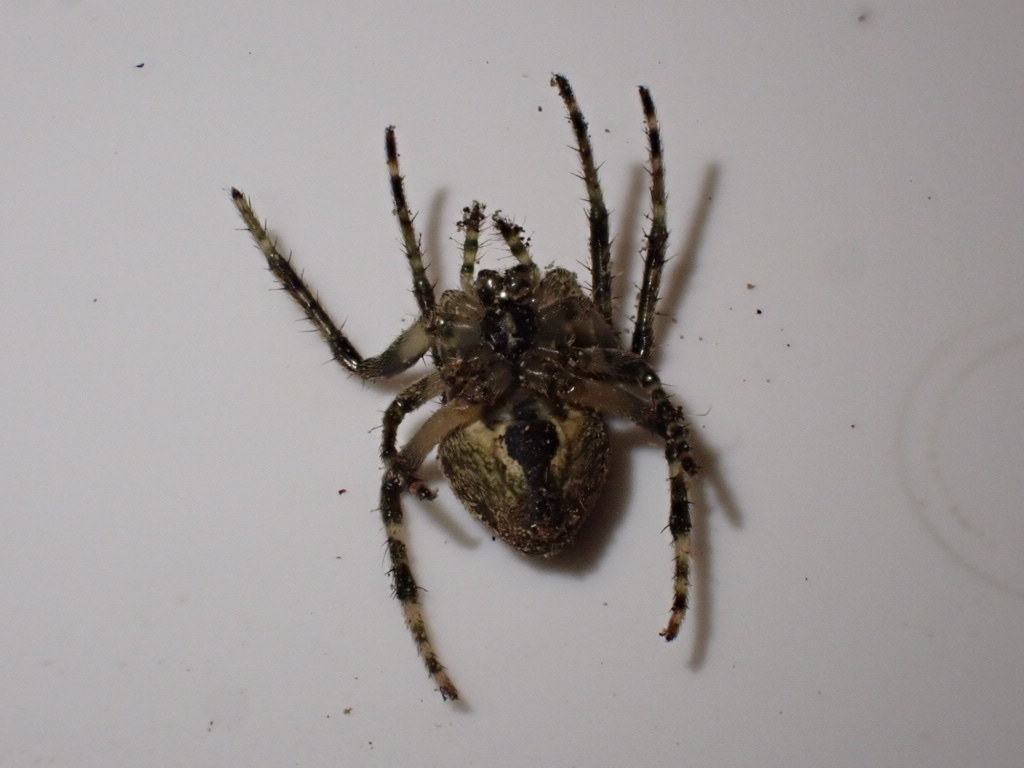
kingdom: Animalia
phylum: Arthropoda
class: Arachnida
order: Araneae
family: Araneidae
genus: Zealaranea
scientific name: Zealaranea crassa
